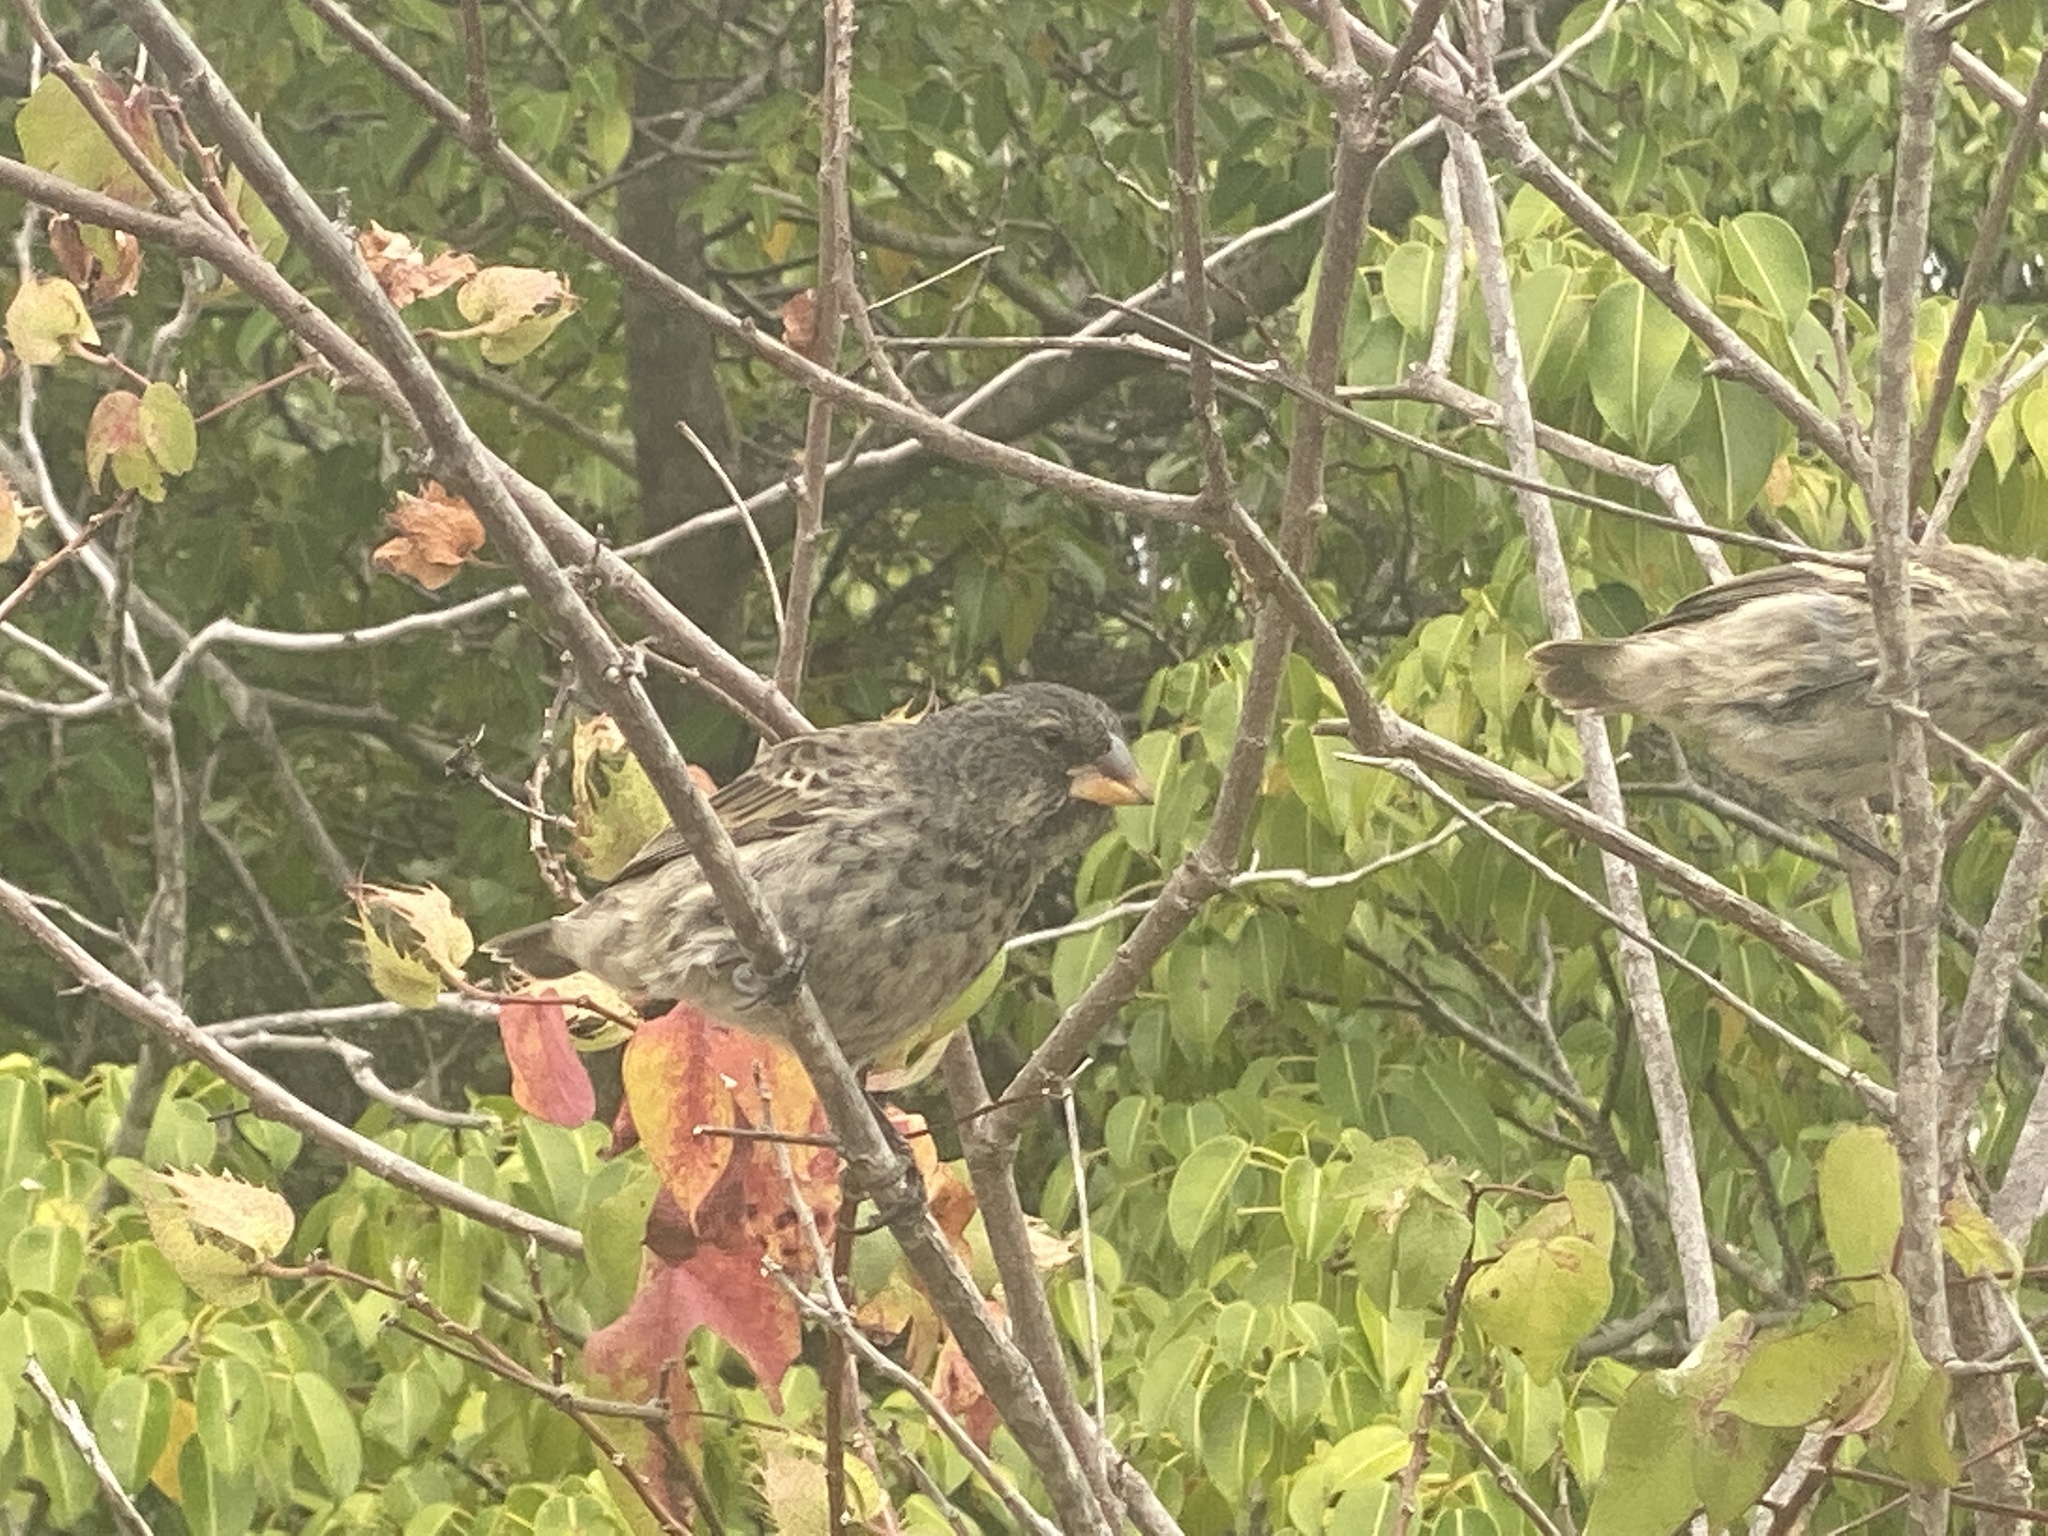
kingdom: Animalia
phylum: Chordata
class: Aves
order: Passeriformes
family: Thraupidae
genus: Geospiza
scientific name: Geospiza fuliginosa
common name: Small ground finch
